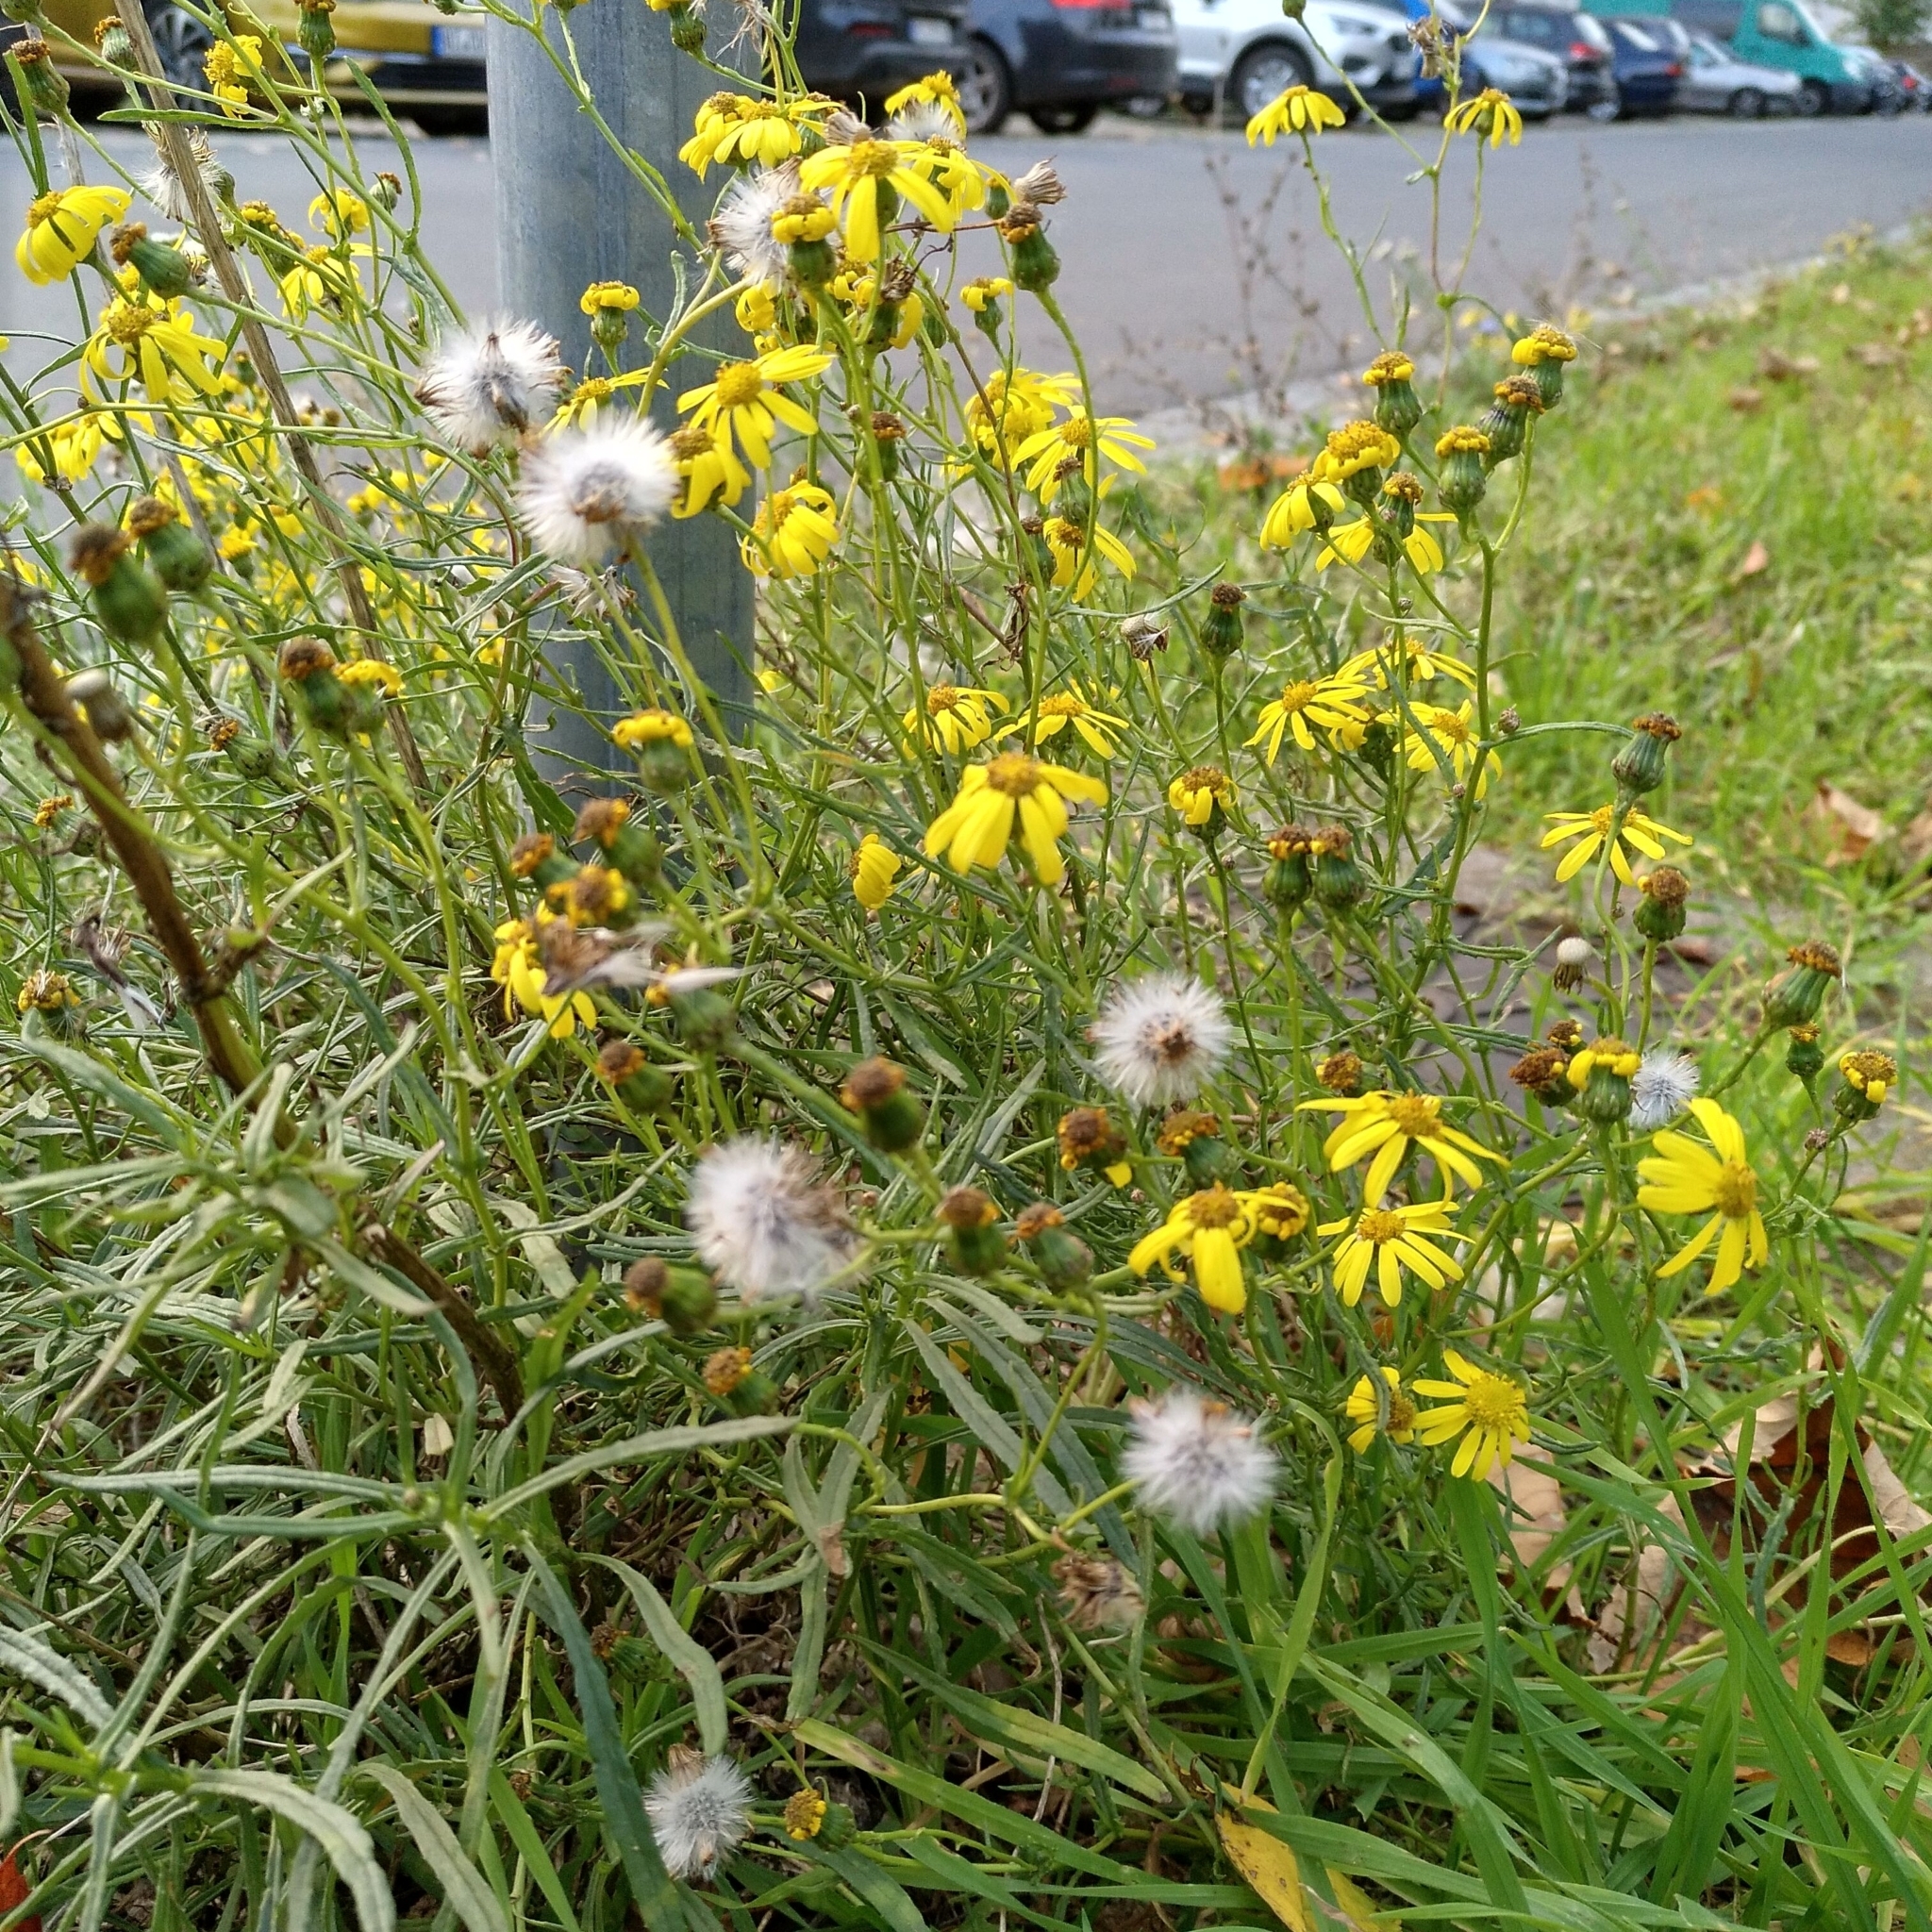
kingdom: Plantae
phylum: Tracheophyta
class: Magnoliopsida
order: Asterales
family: Asteraceae
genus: Senecio
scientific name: Senecio inaequidens
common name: Narrow-leaved ragwort
